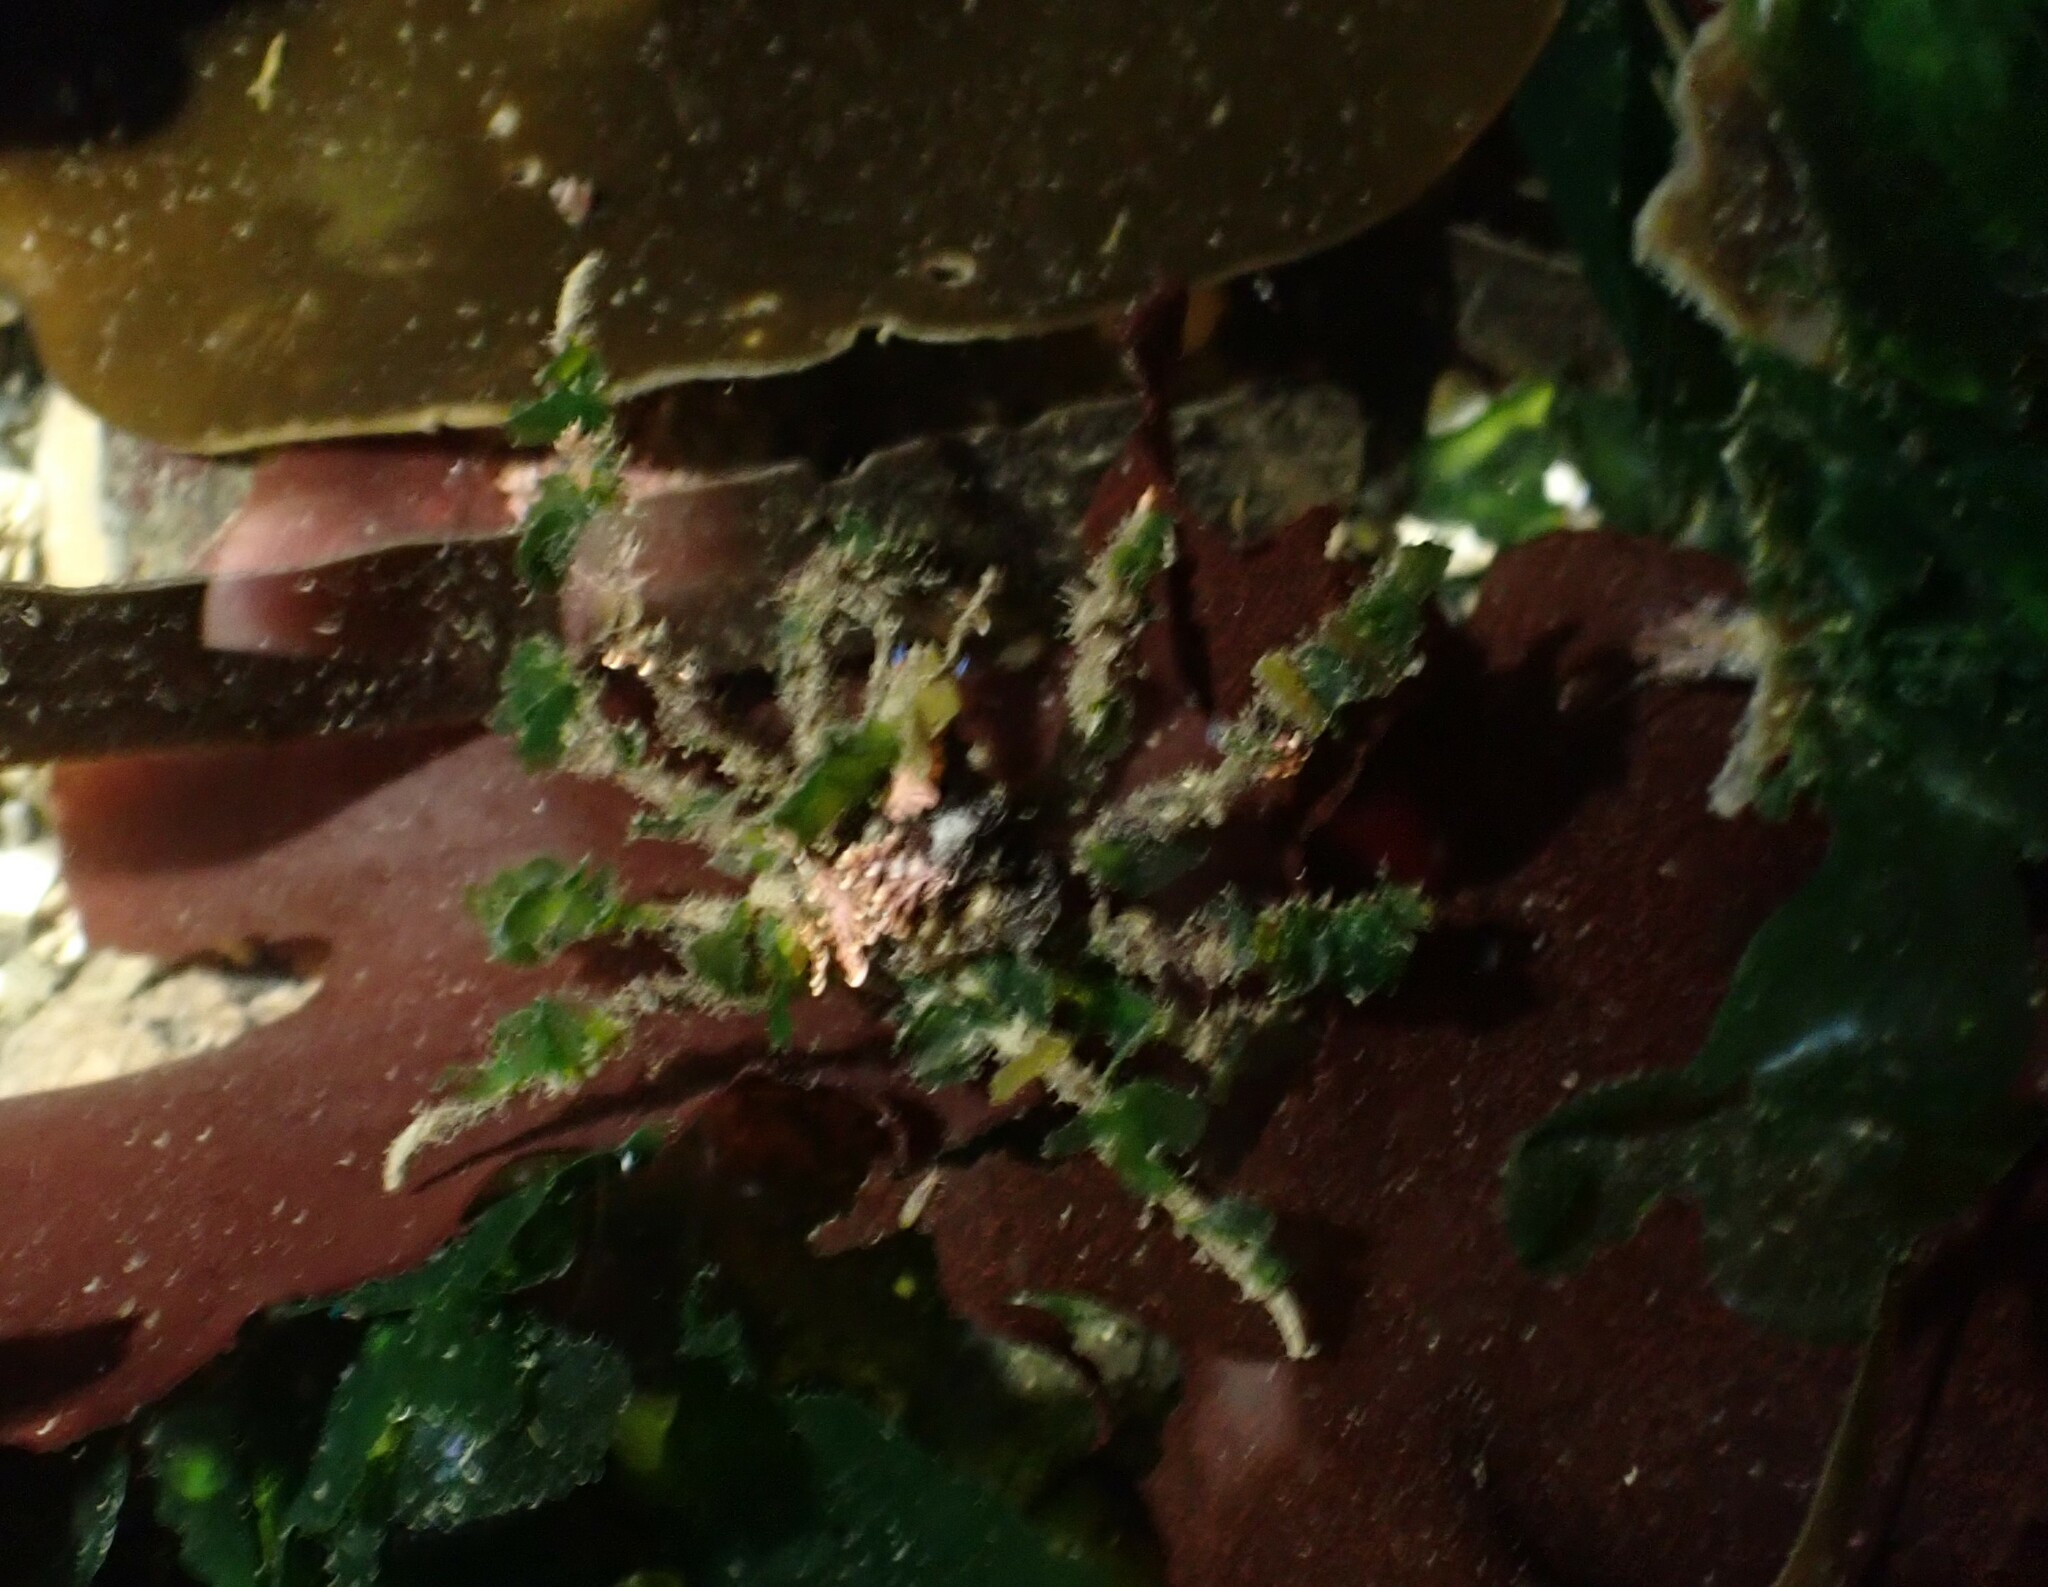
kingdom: Animalia
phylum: Arthropoda
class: Malacostraca
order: Decapoda
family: Oregoniidae
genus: Oregonia
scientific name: Oregonia gracilis
